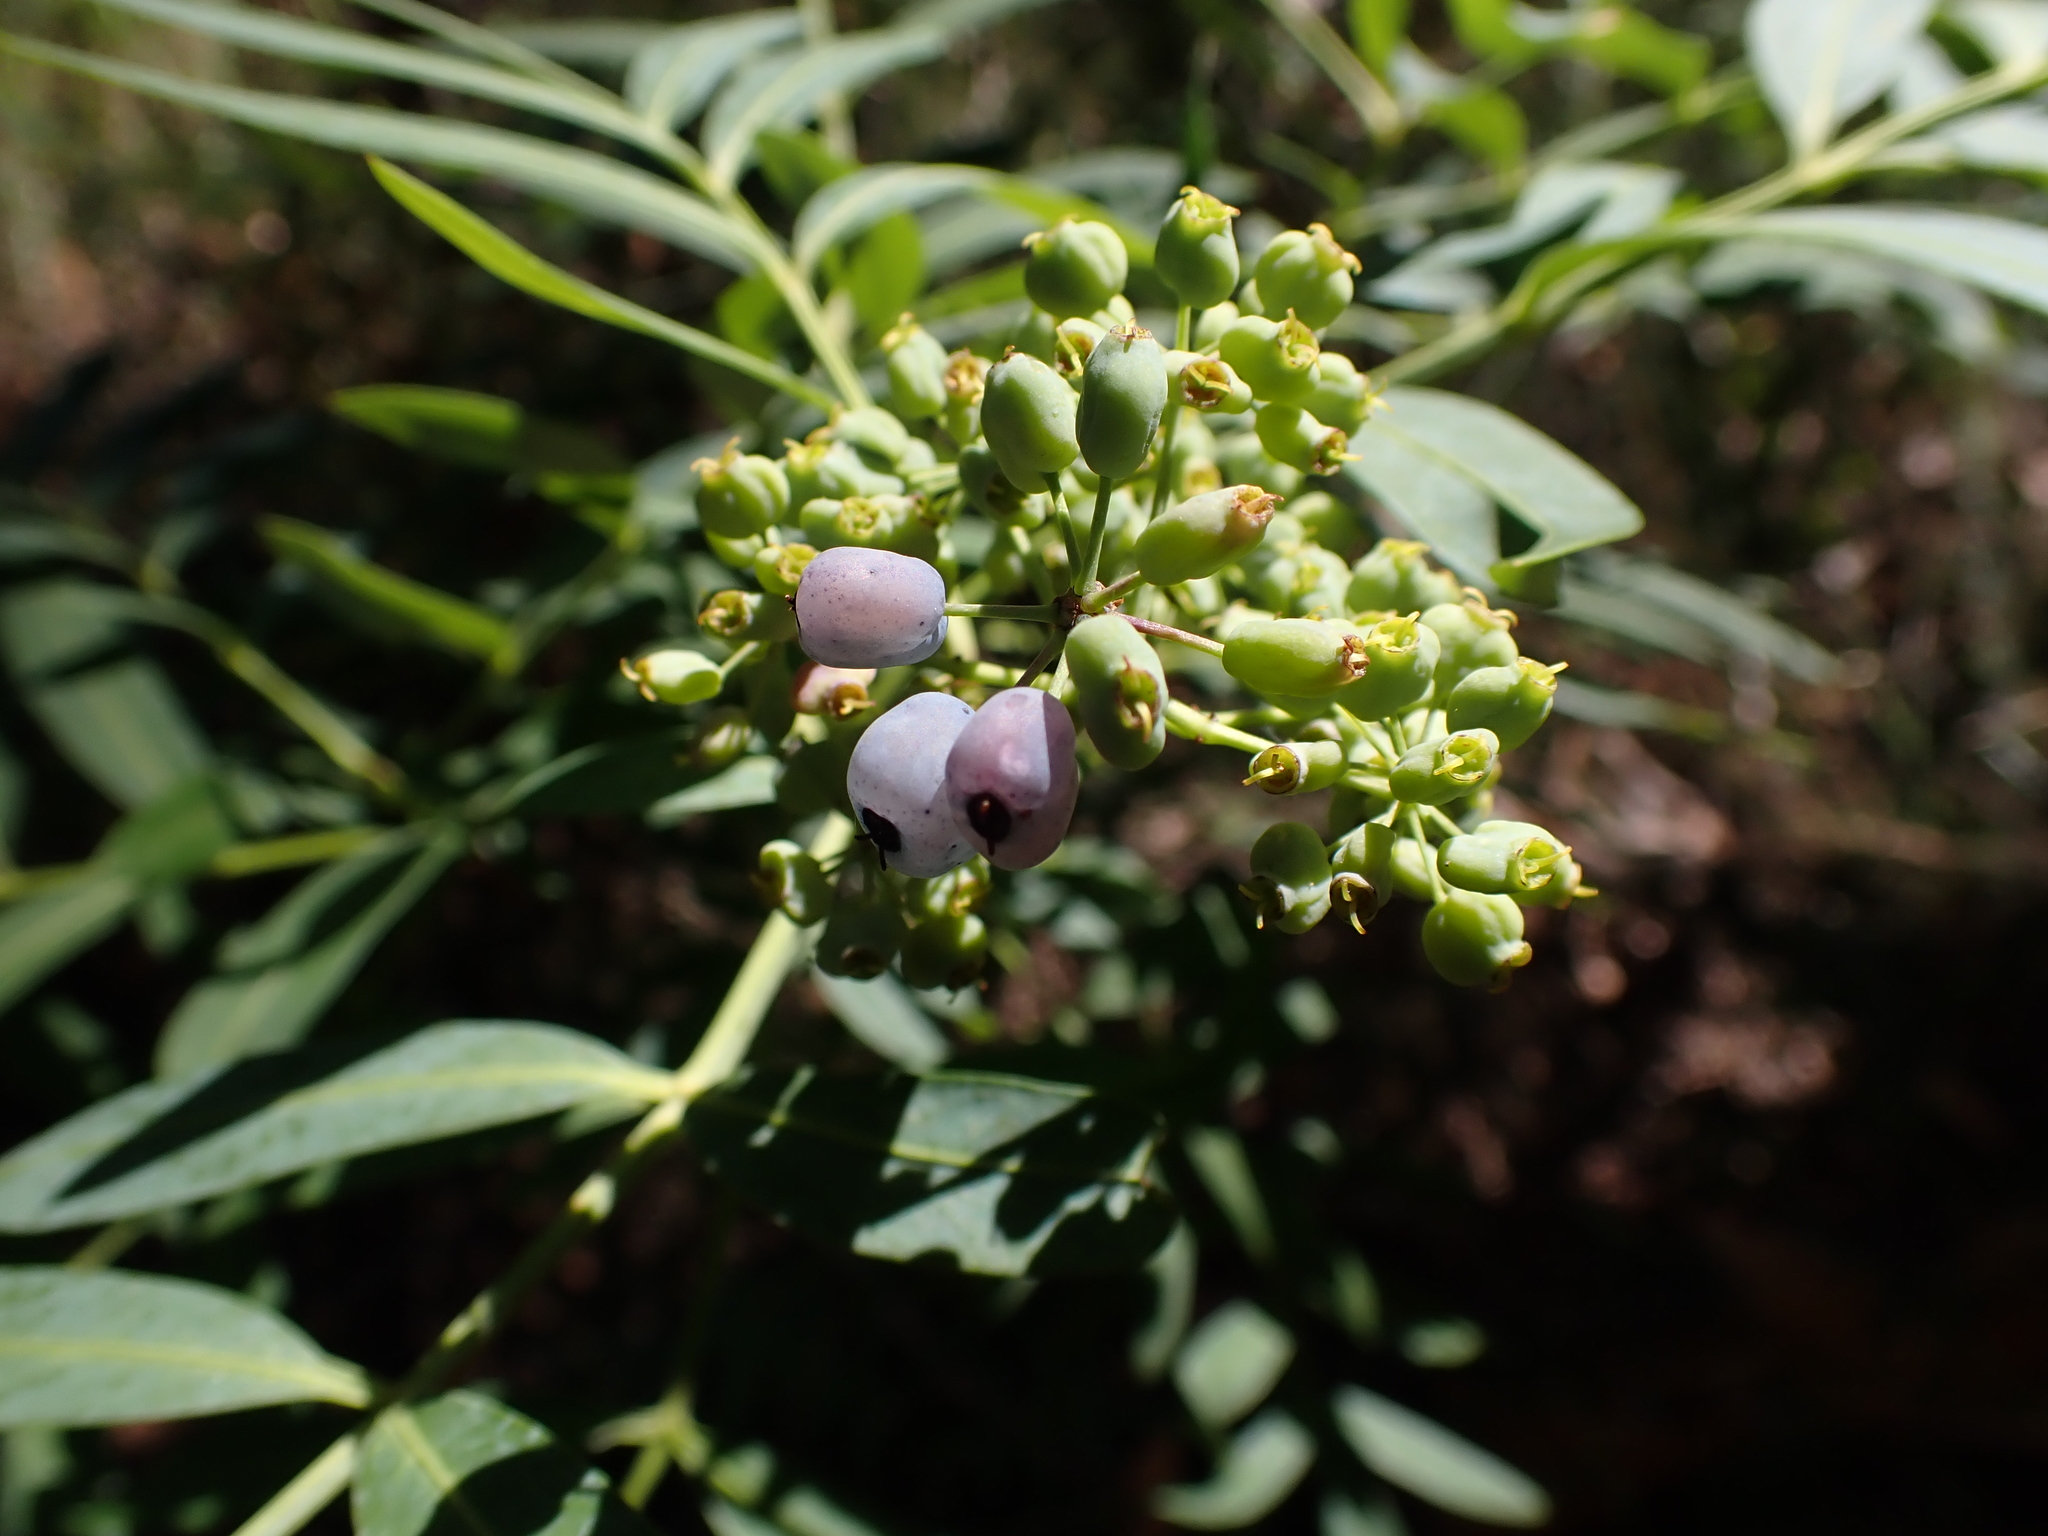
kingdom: Plantae
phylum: Tracheophyta
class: Magnoliopsida
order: Apiales
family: Araliaceae
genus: Polyscias
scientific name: Polyscias sambucifolia
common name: Elderberry-ash
